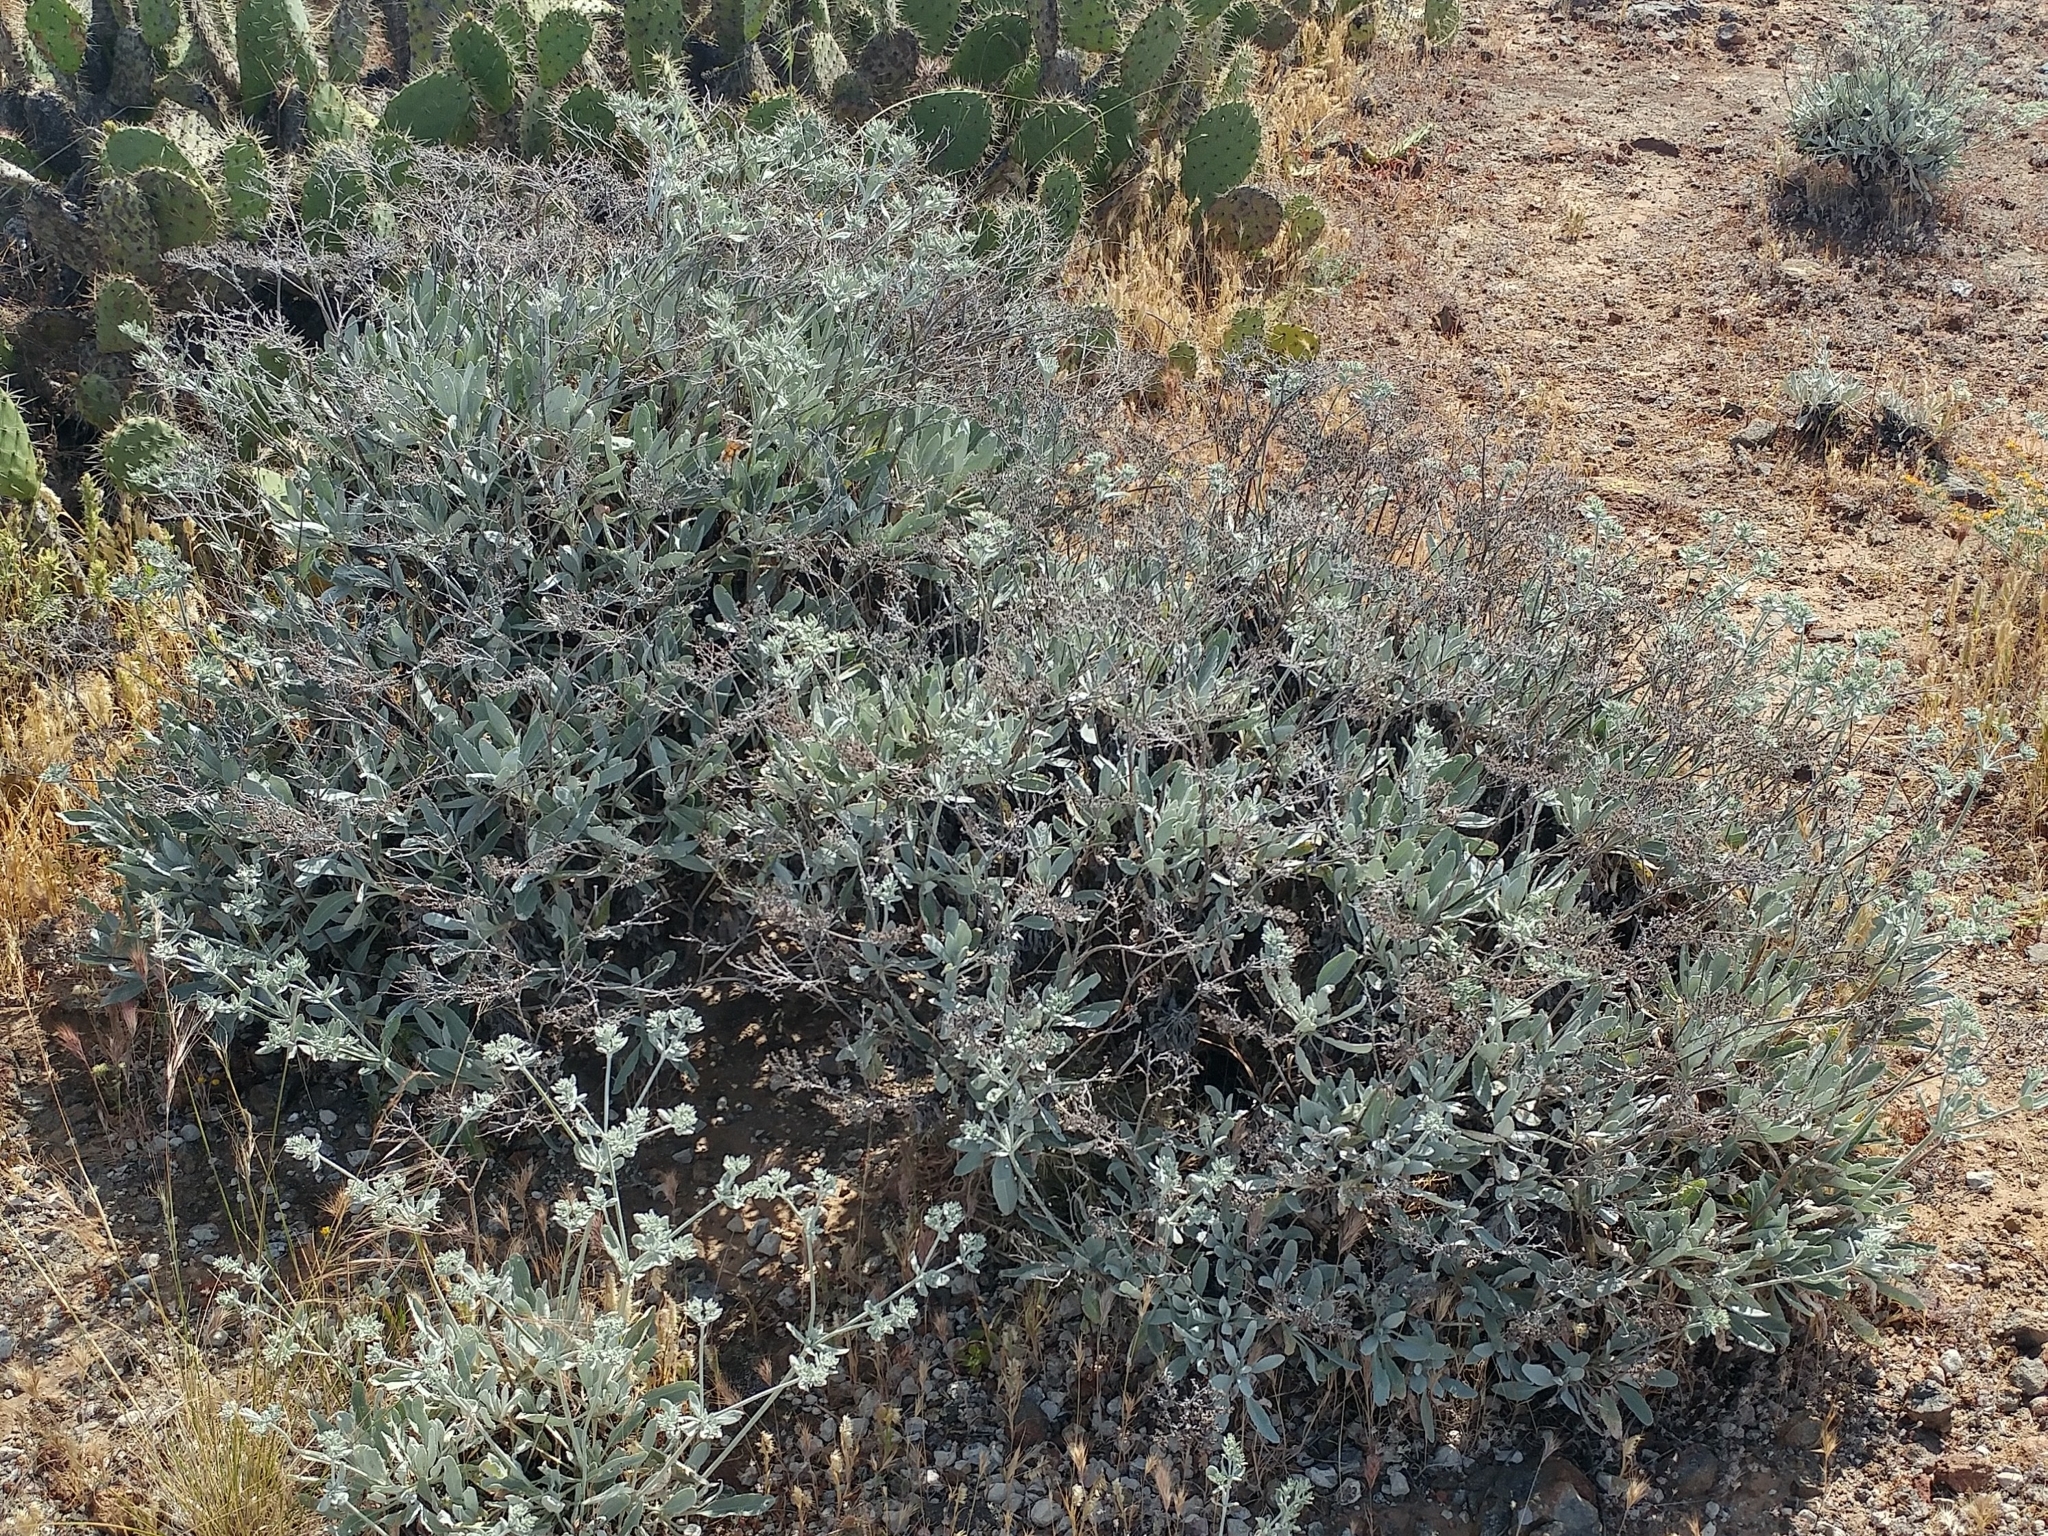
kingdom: Plantae
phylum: Tracheophyta
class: Magnoliopsida
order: Caryophyllales
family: Polygonaceae
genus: Eriogonum
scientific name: Eriogonum giganteum
